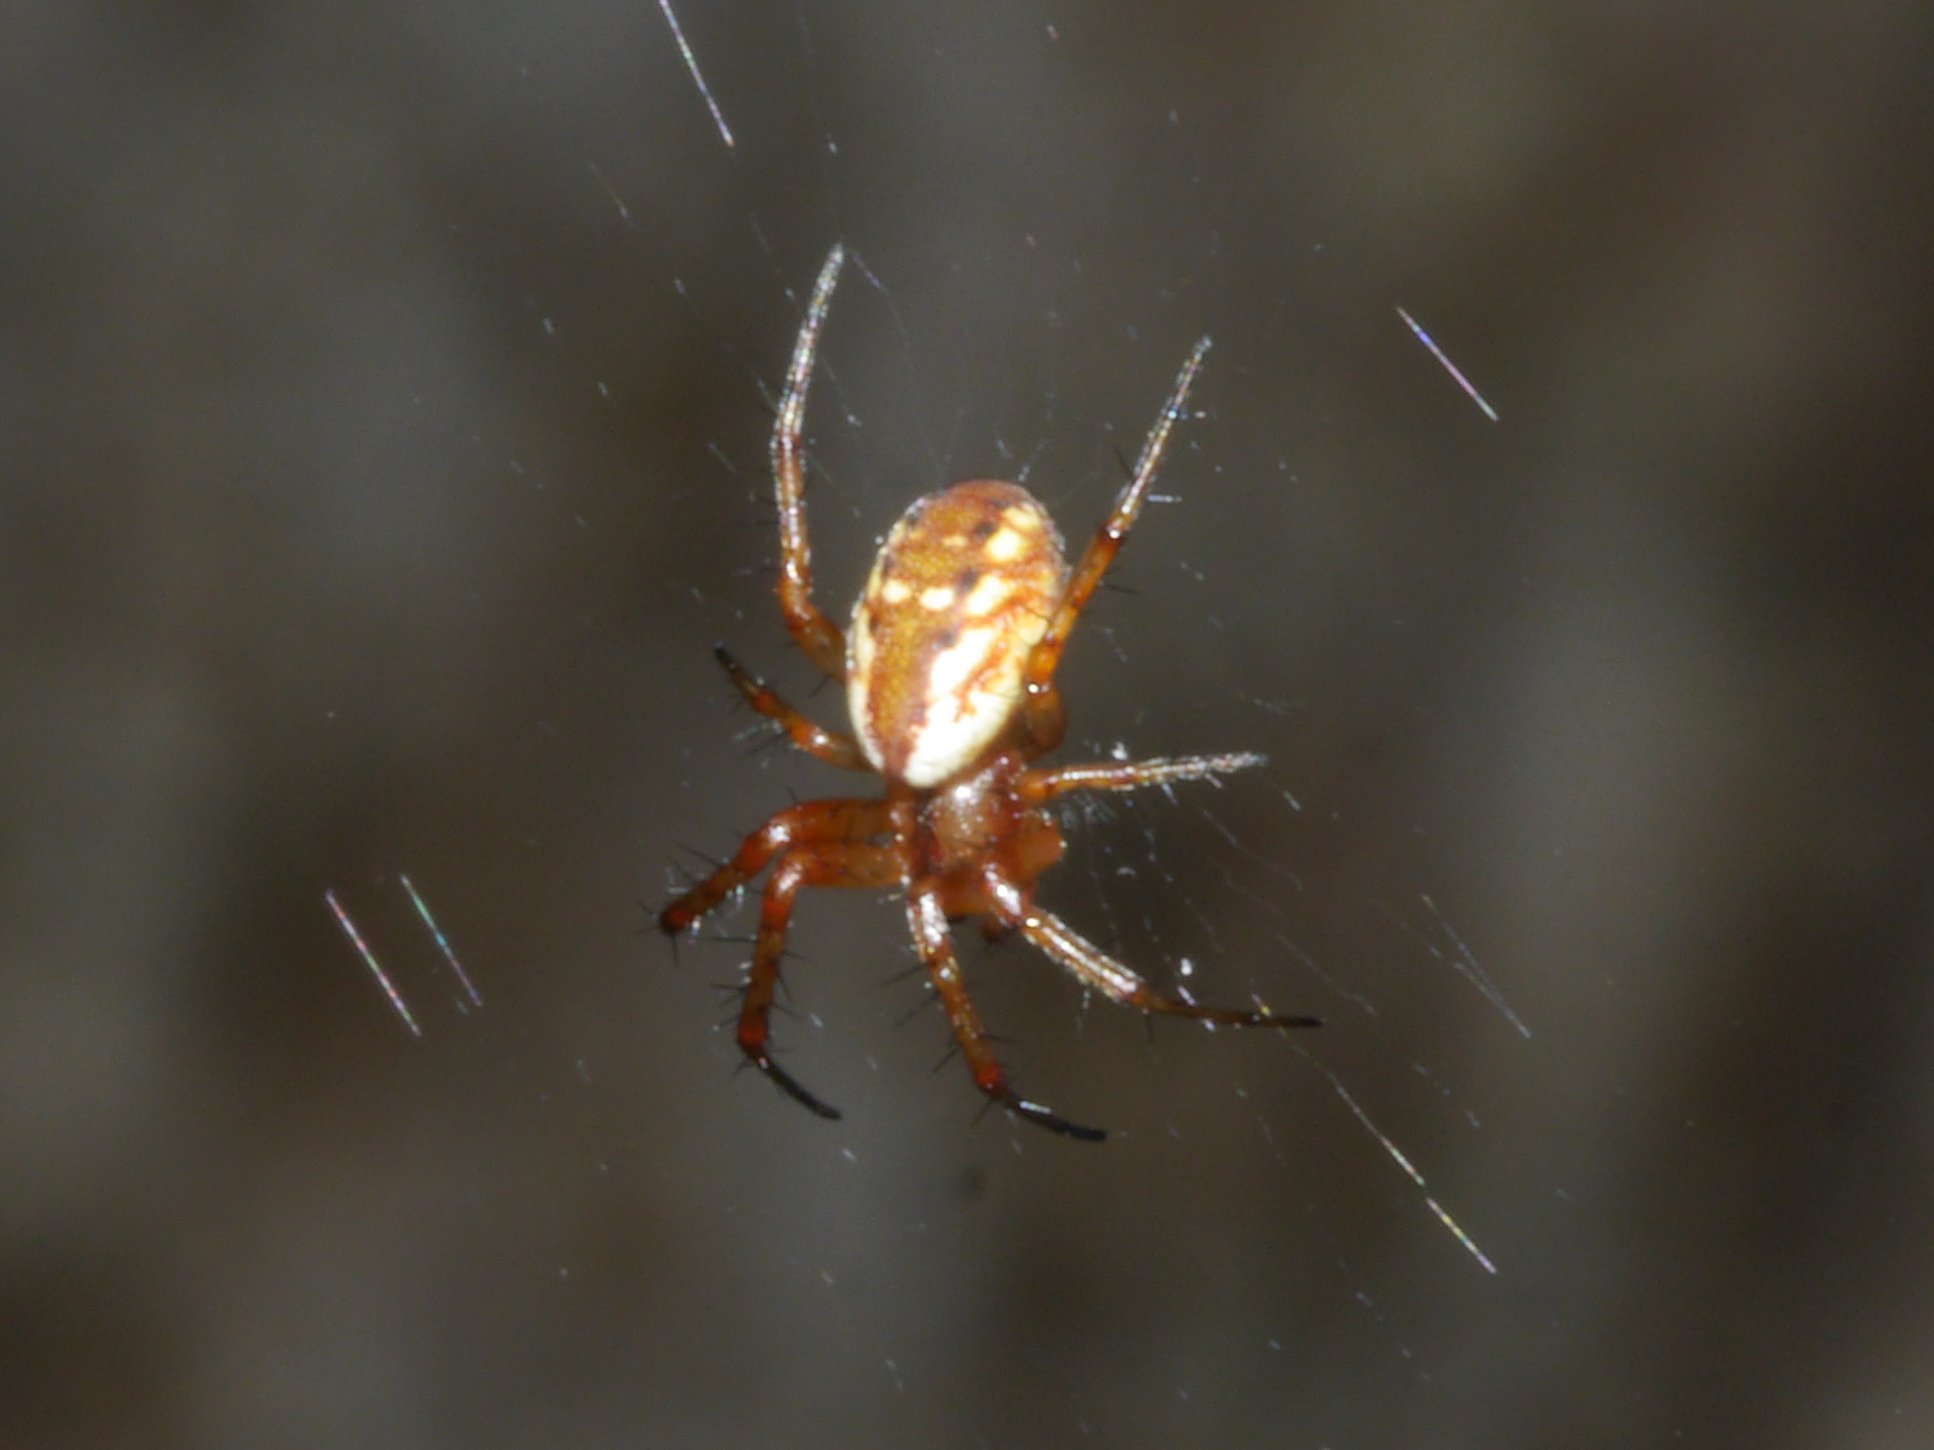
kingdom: Animalia
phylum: Arthropoda
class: Arachnida
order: Araneae
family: Araneidae
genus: Mangora
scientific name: Mangora placida
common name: Tuft-legged orbweaver
